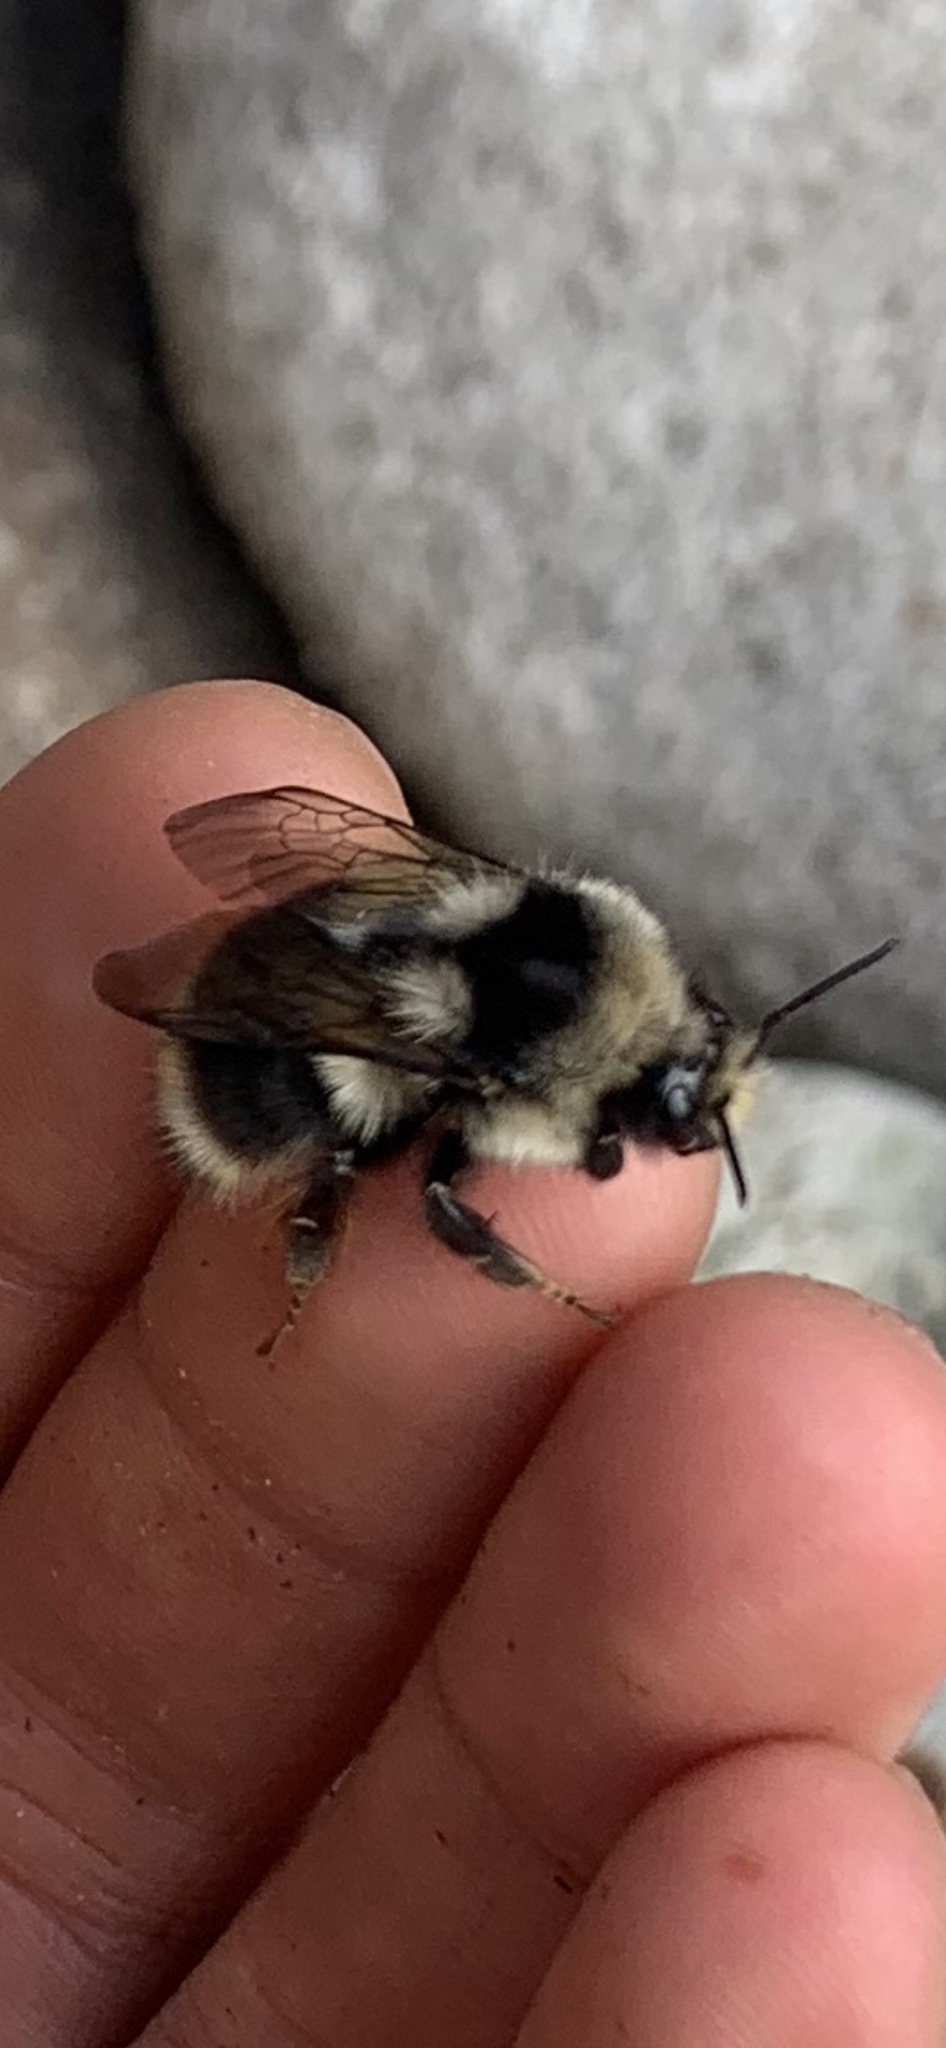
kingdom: Animalia
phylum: Arthropoda
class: Insecta
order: Hymenoptera
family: Apidae
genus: Bombus
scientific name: Bombus vancouverensis
